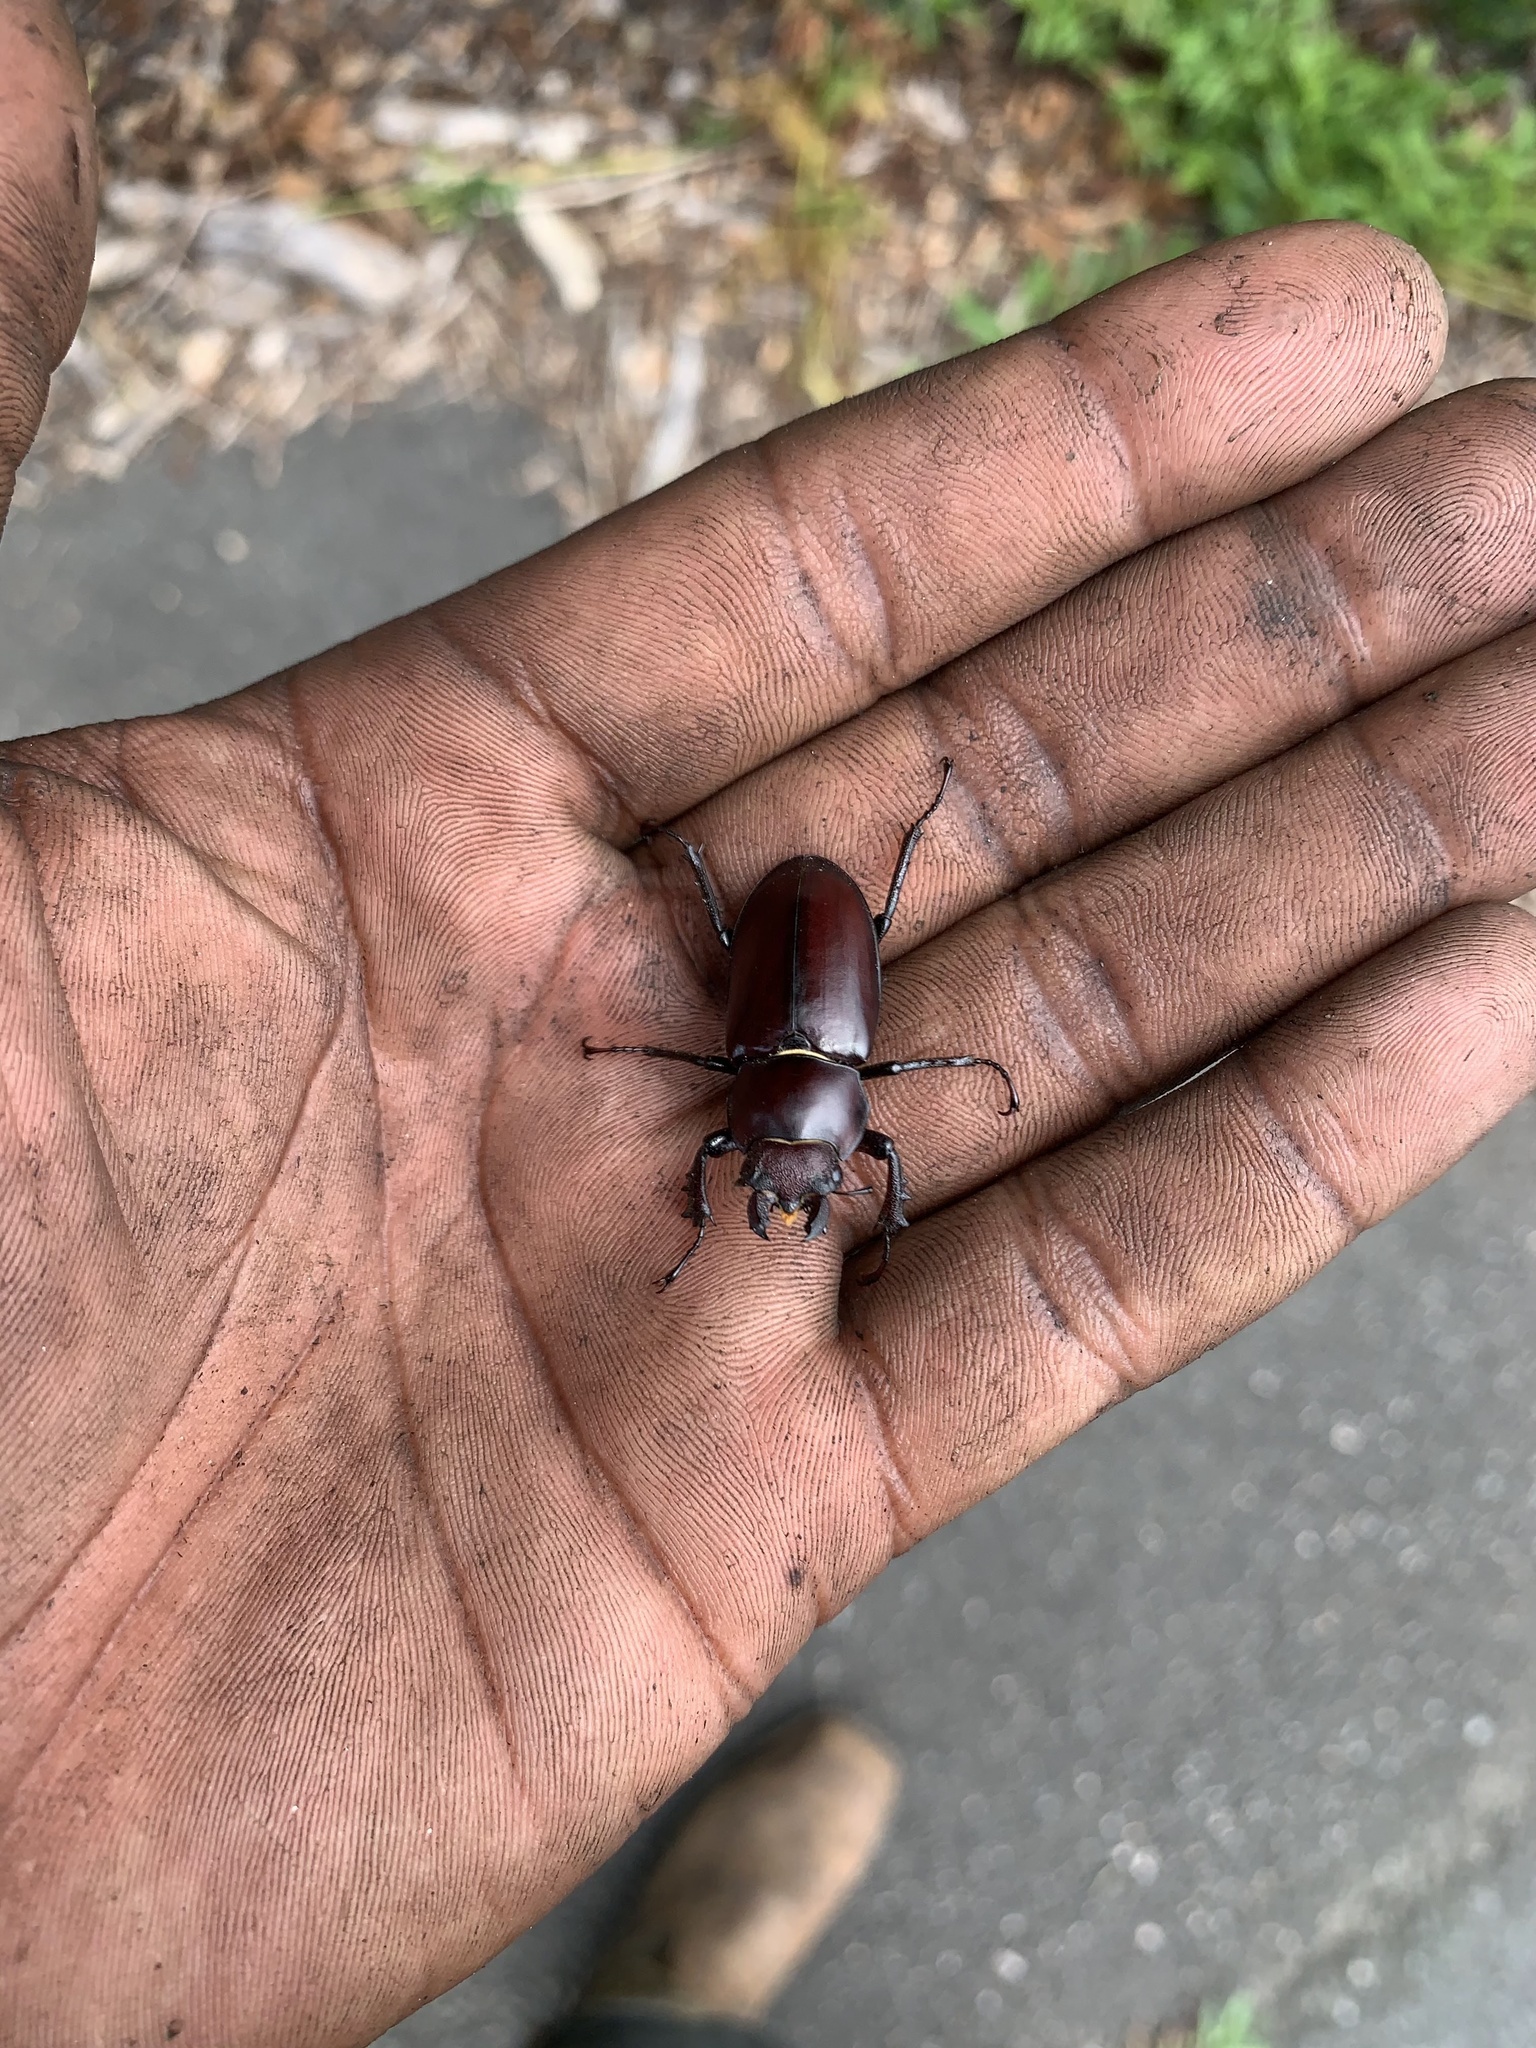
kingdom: Animalia
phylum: Arthropoda
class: Insecta
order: Coleoptera
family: Lucanidae
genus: Lucanus
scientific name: Lucanus elaphus
